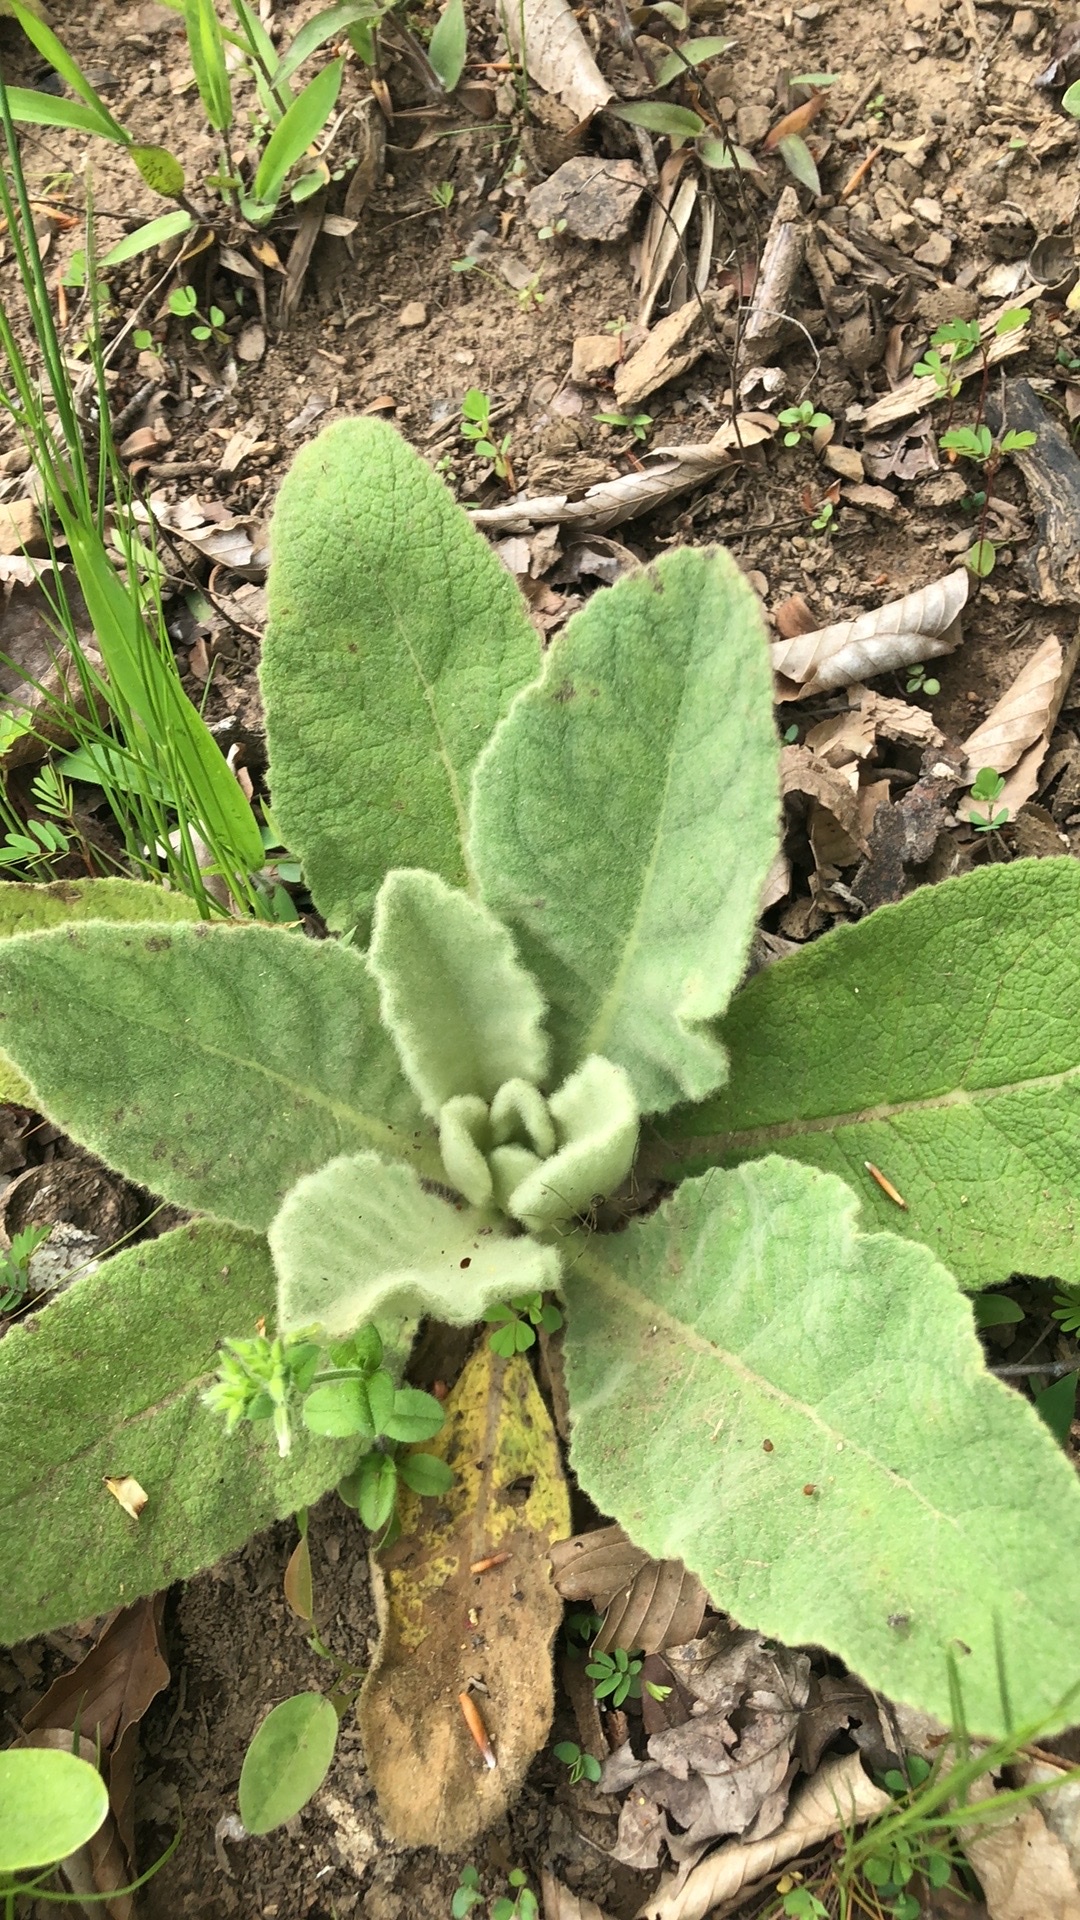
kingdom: Plantae
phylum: Tracheophyta
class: Magnoliopsida
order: Lamiales
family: Scrophulariaceae
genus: Verbascum
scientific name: Verbascum thapsus
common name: Common mullein
